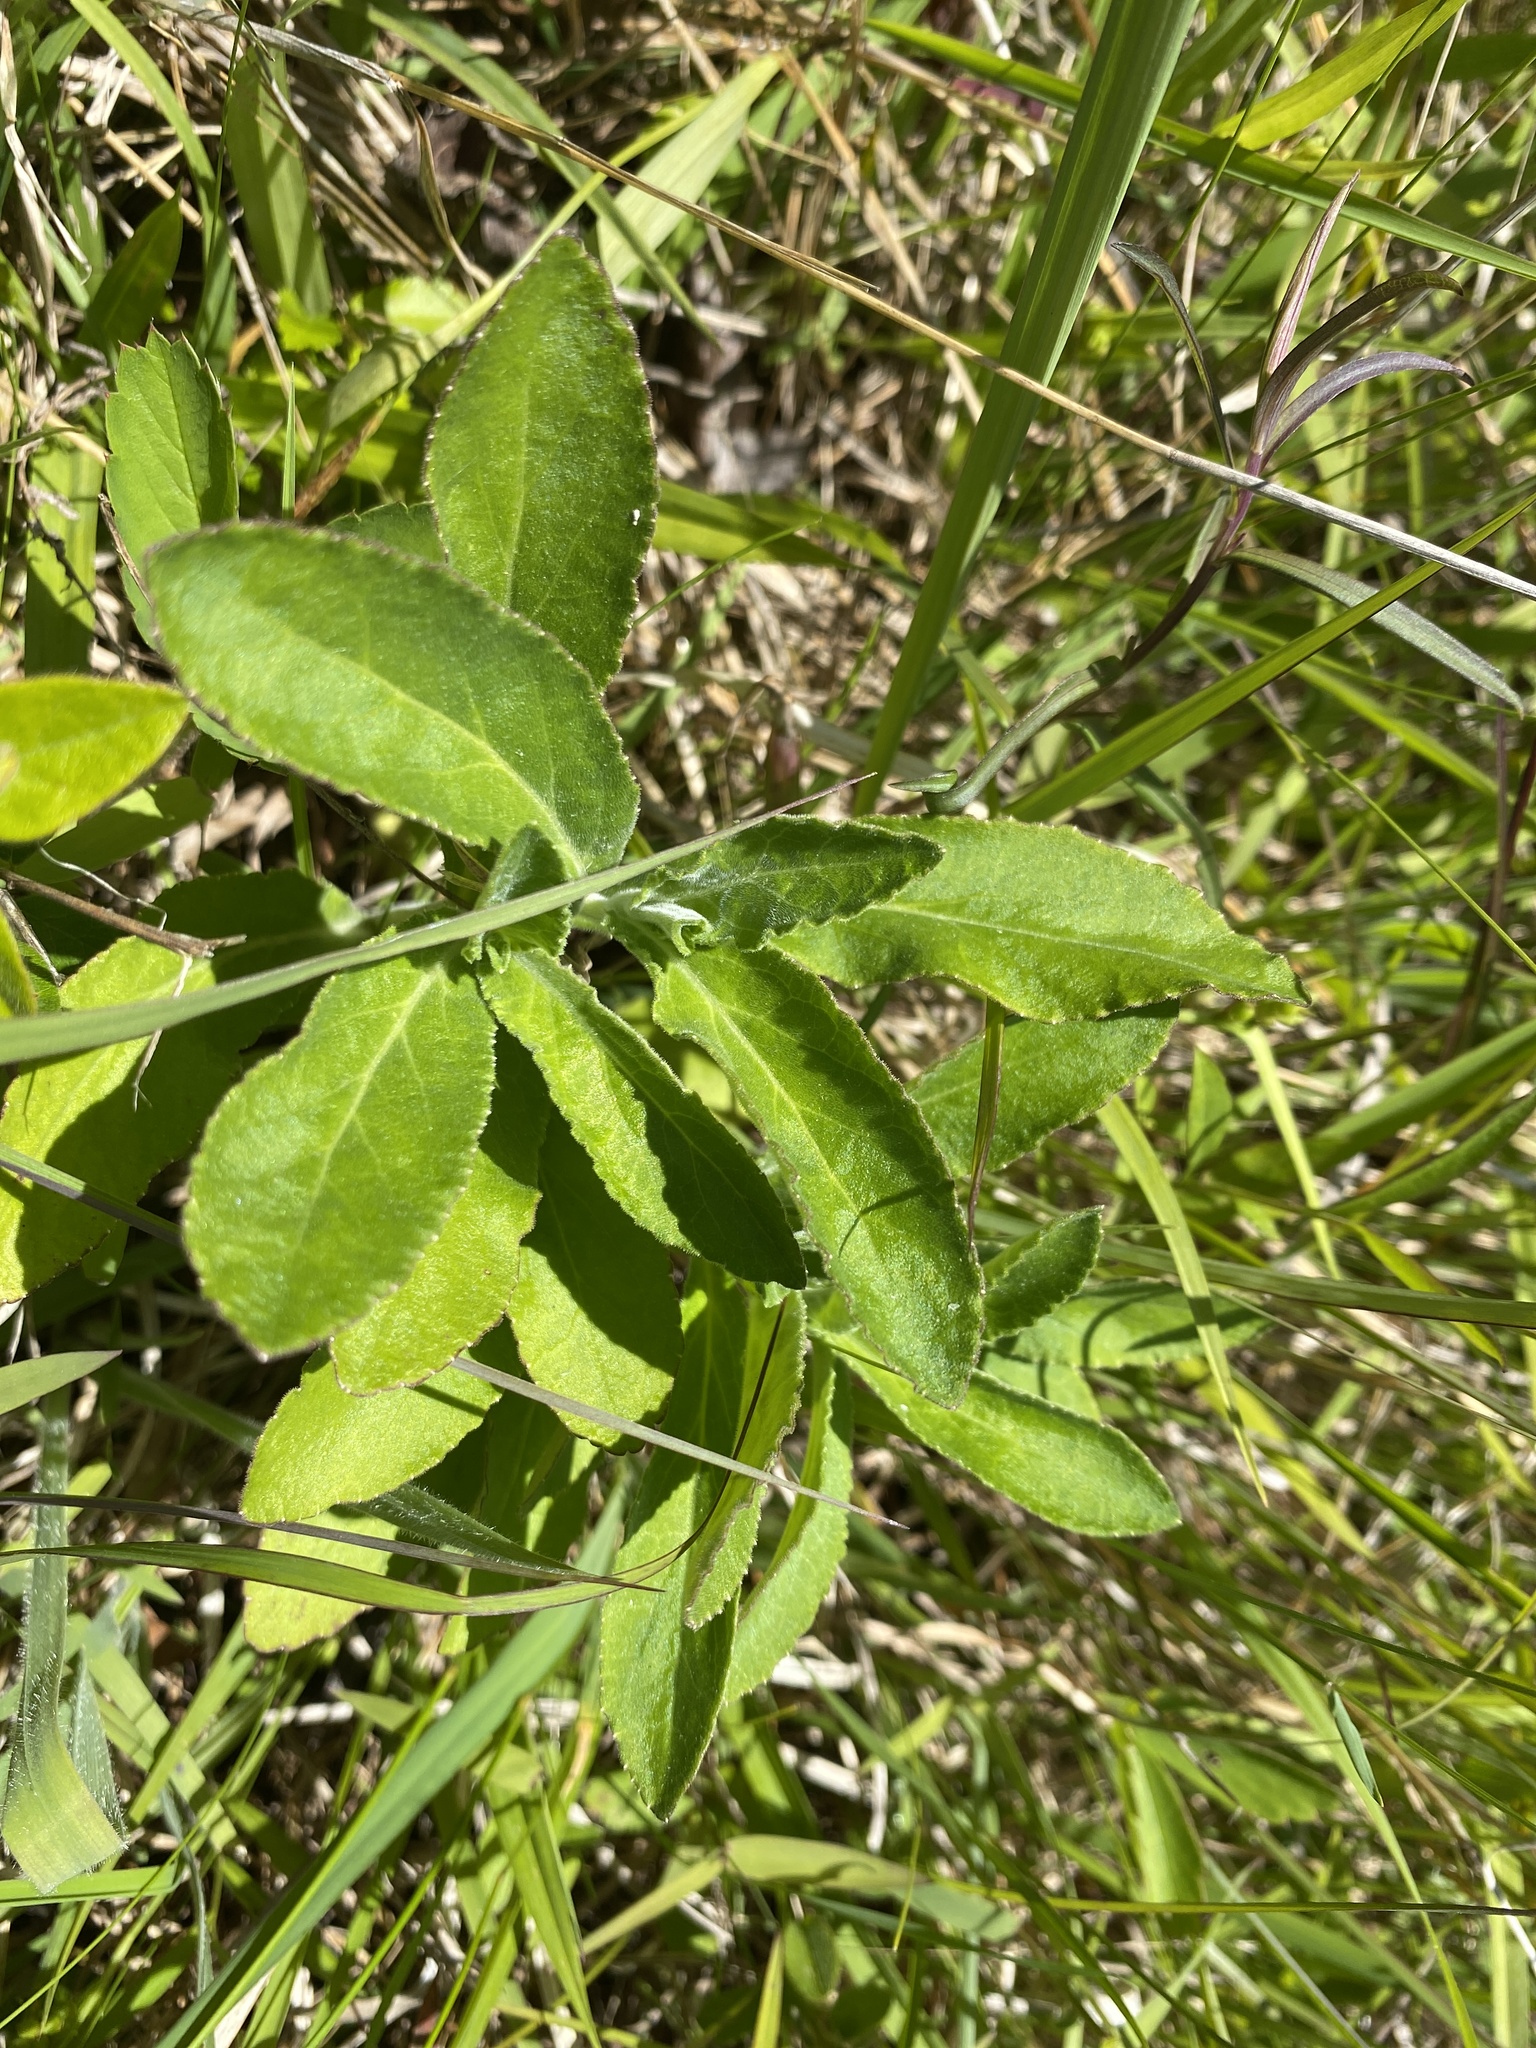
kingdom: Plantae
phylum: Tracheophyta
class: Magnoliopsida
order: Asterales
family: Campanulaceae
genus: Lobelia
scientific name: Lobelia puberula
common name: Purple dewdrop
